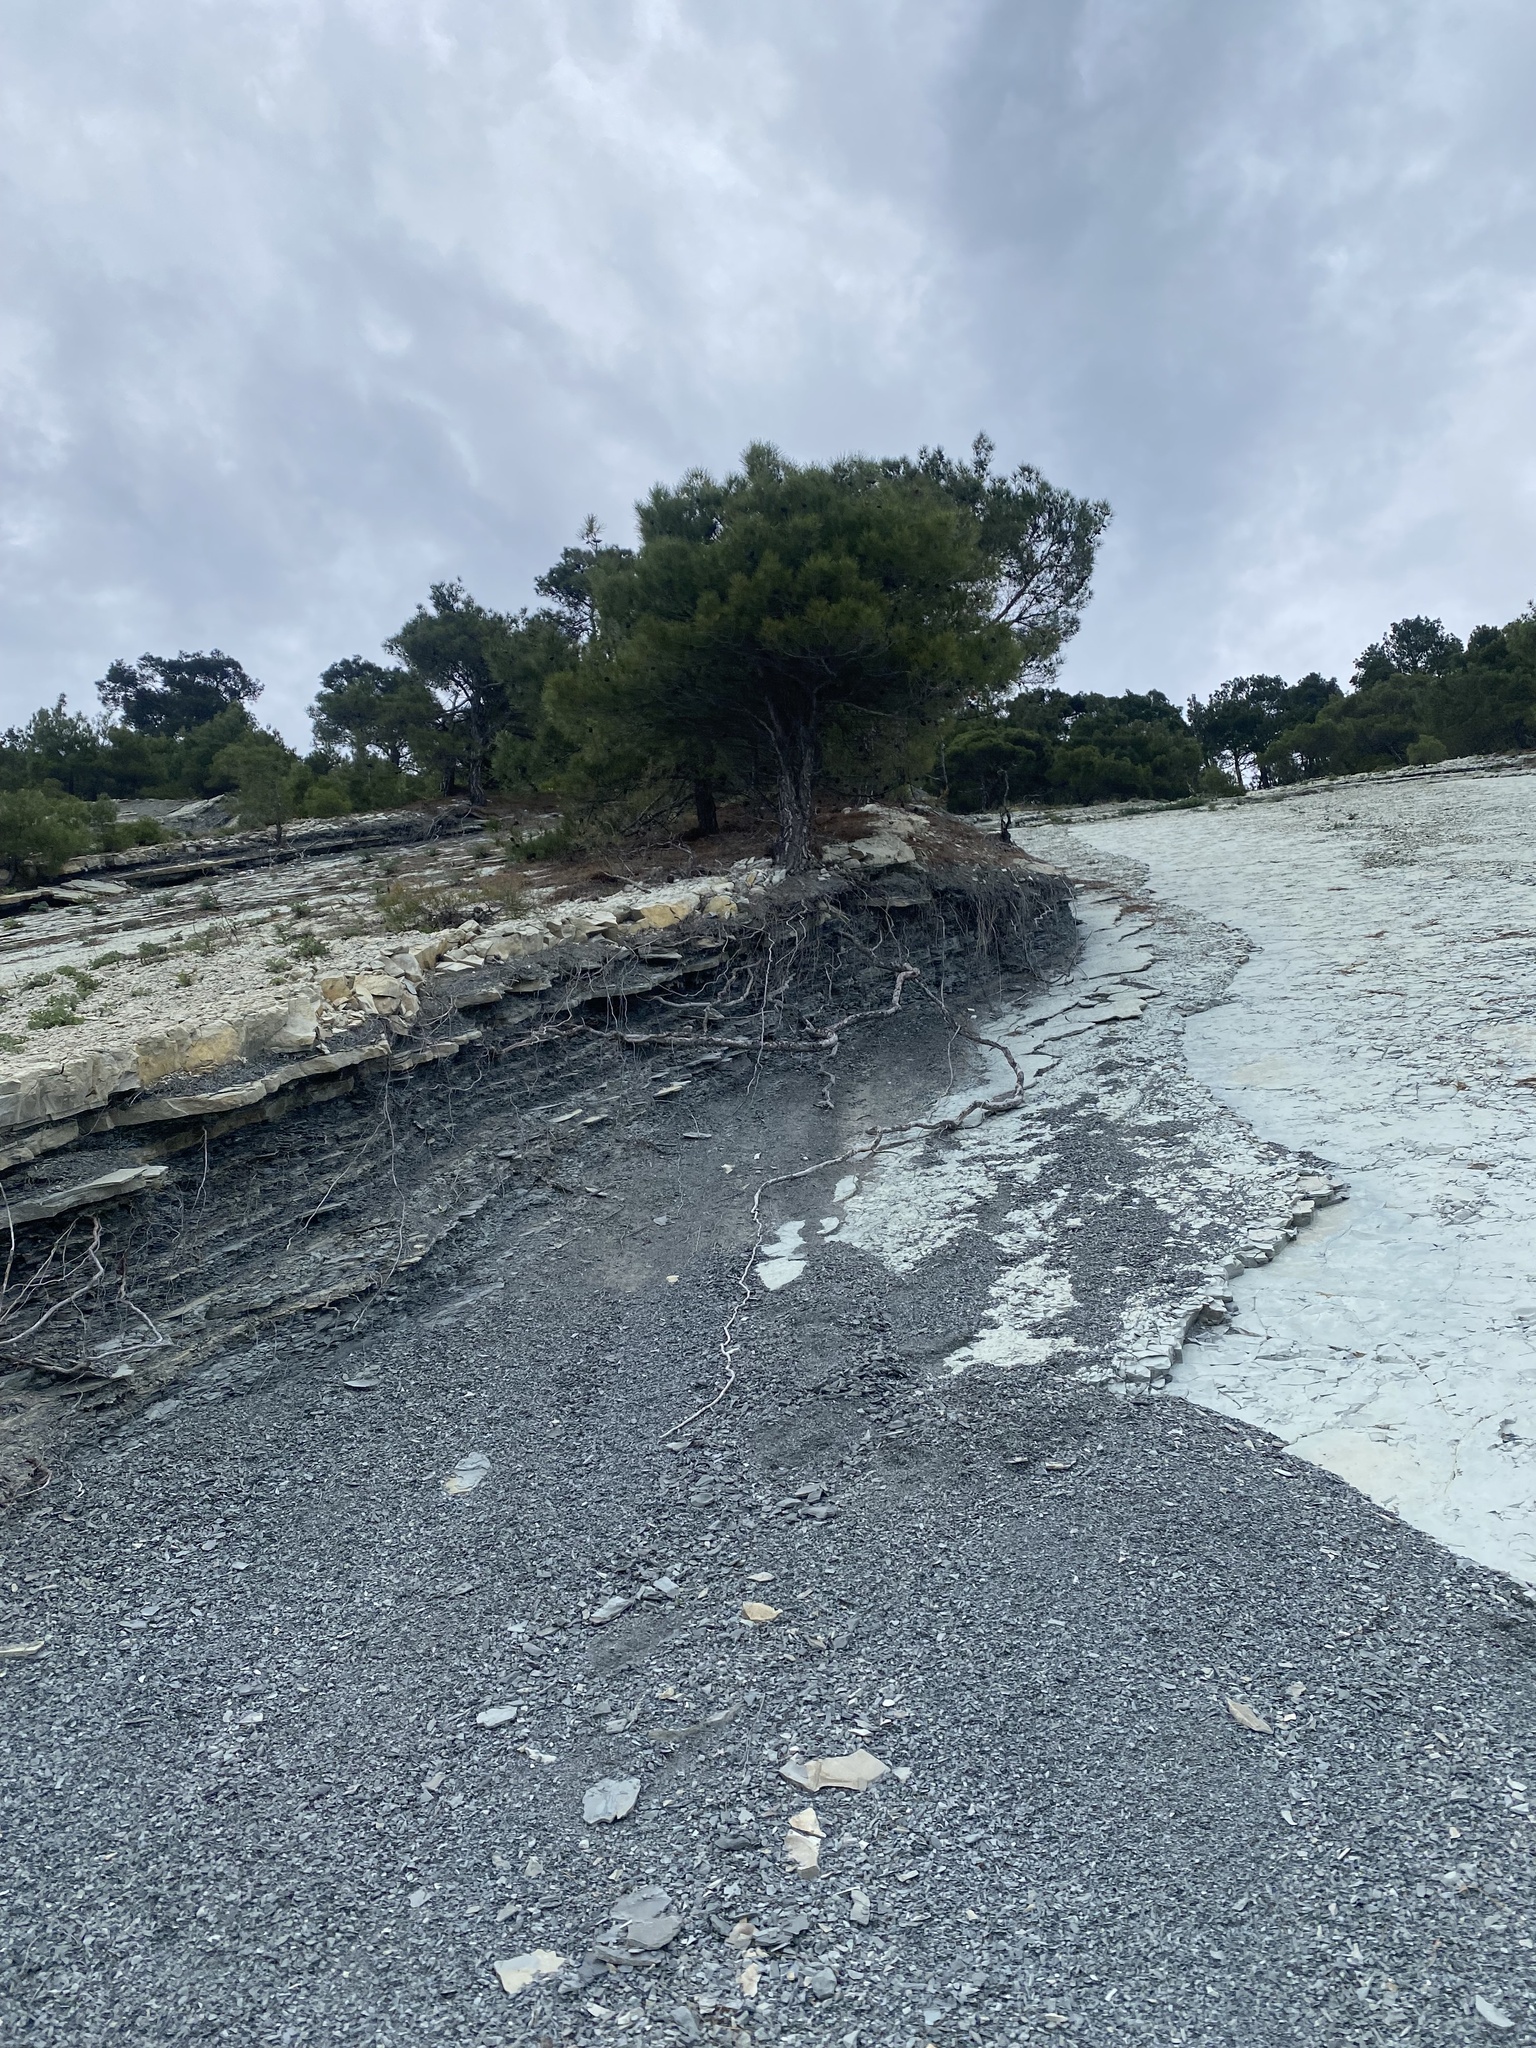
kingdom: Plantae
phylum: Tracheophyta
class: Pinopsida
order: Pinales
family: Pinaceae
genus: Pinus
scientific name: Pinus brutia
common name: Turkish pine
